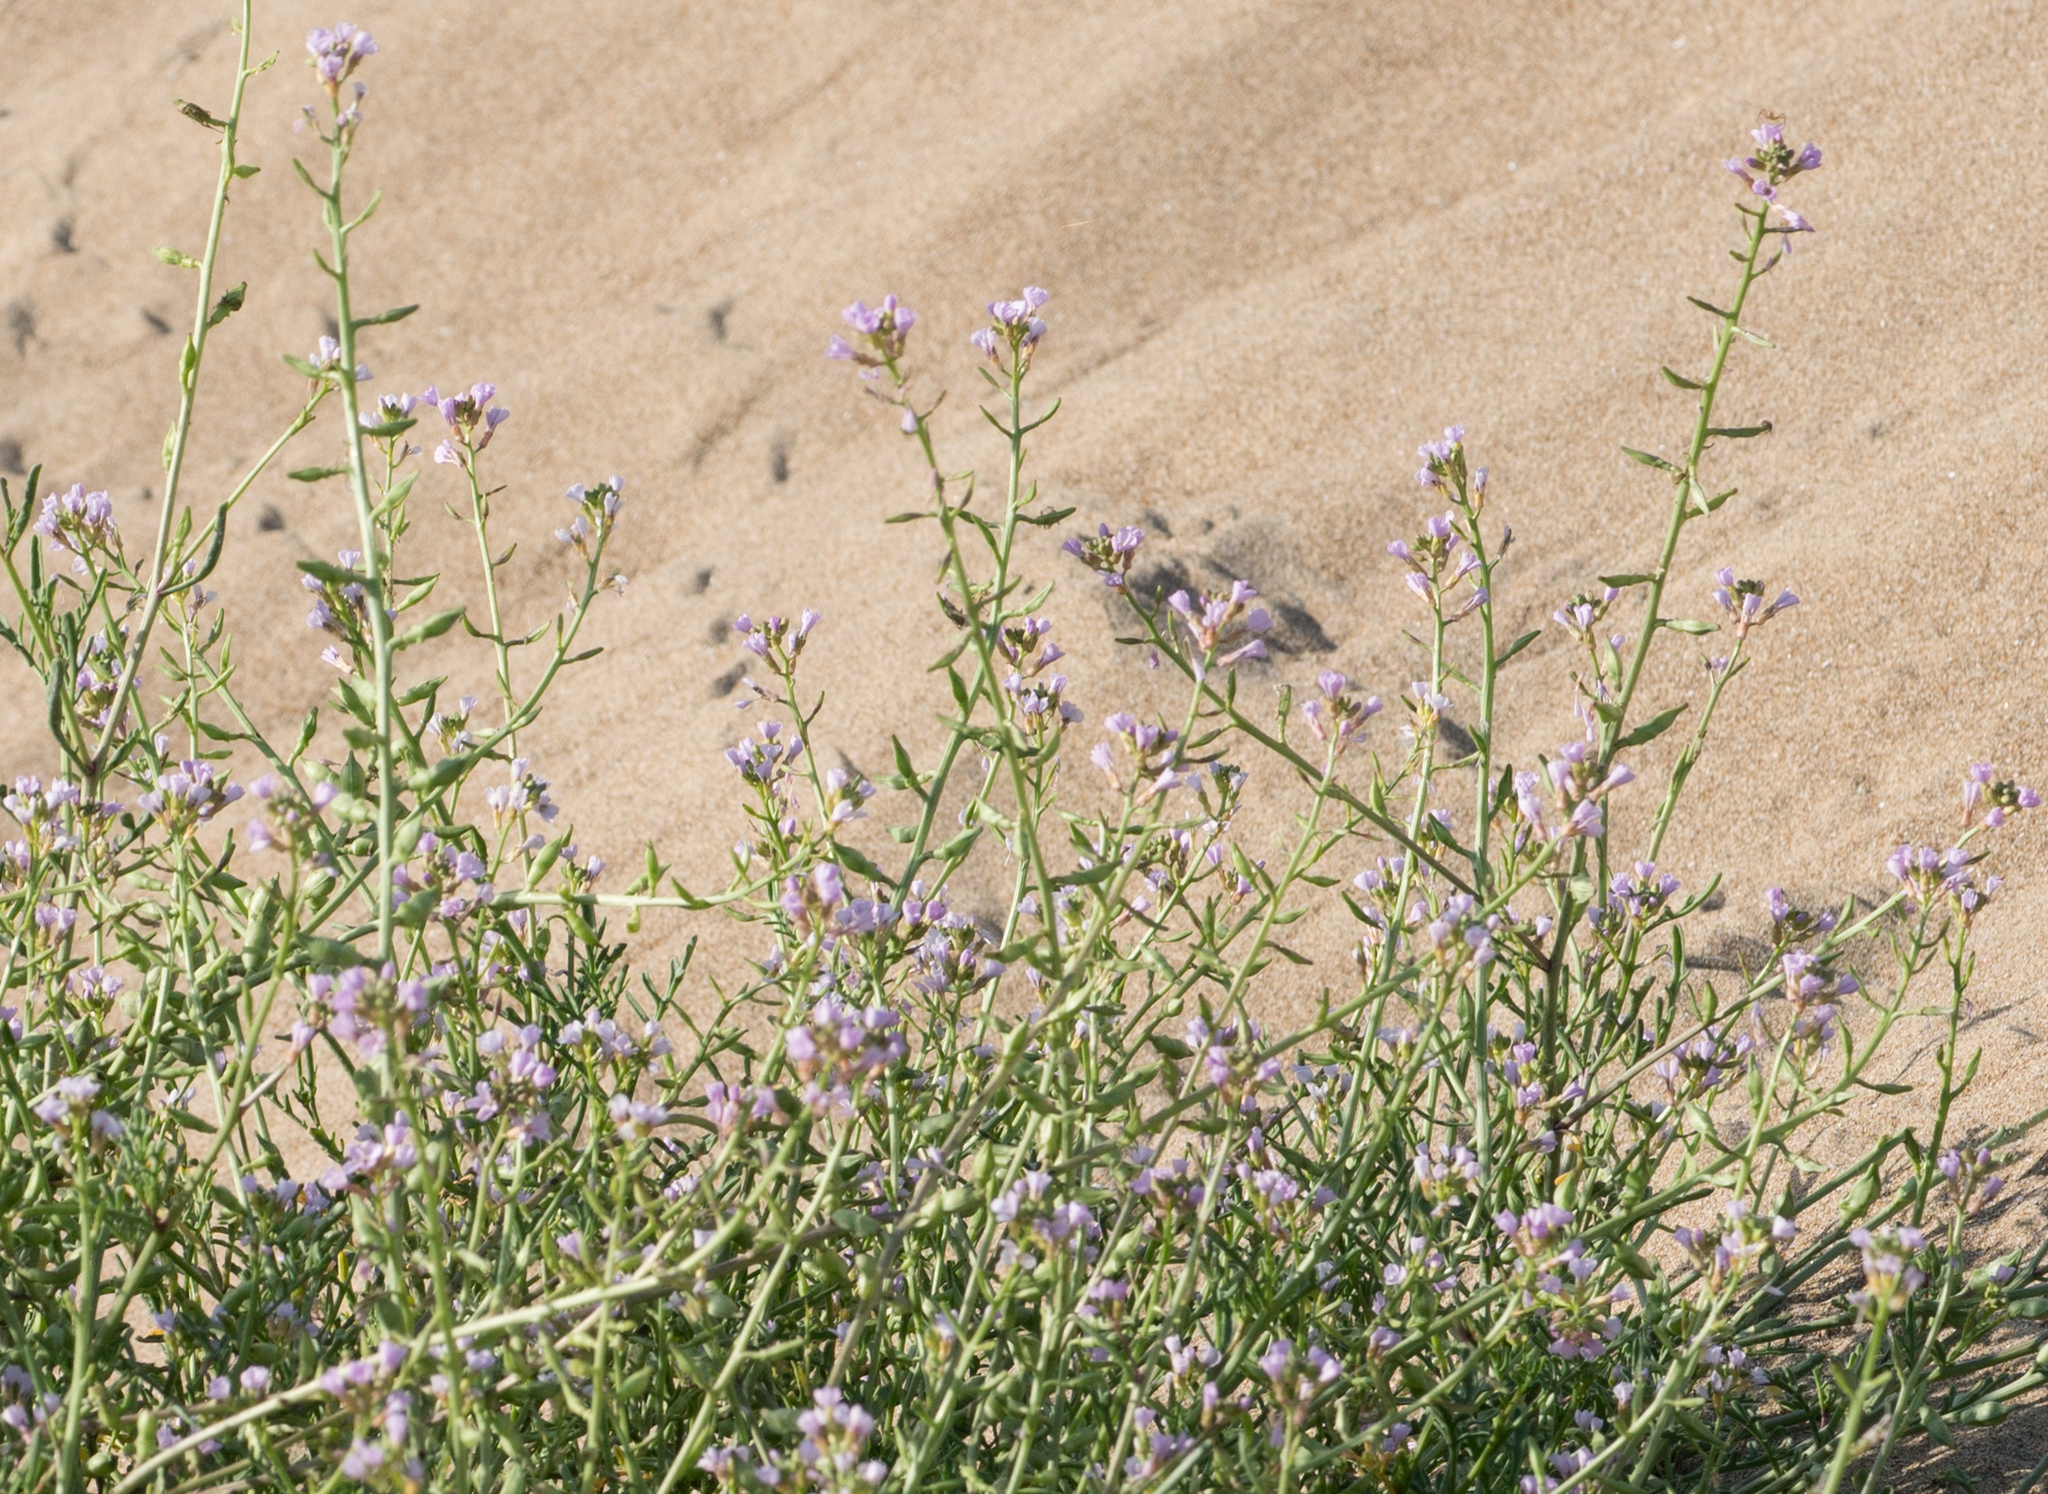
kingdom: Plantae
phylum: Tracheophyta
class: Magnoliopsida
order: Brassicales
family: Brassicaceae
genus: Cakile
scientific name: Cakile maritima
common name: Sea rocket
